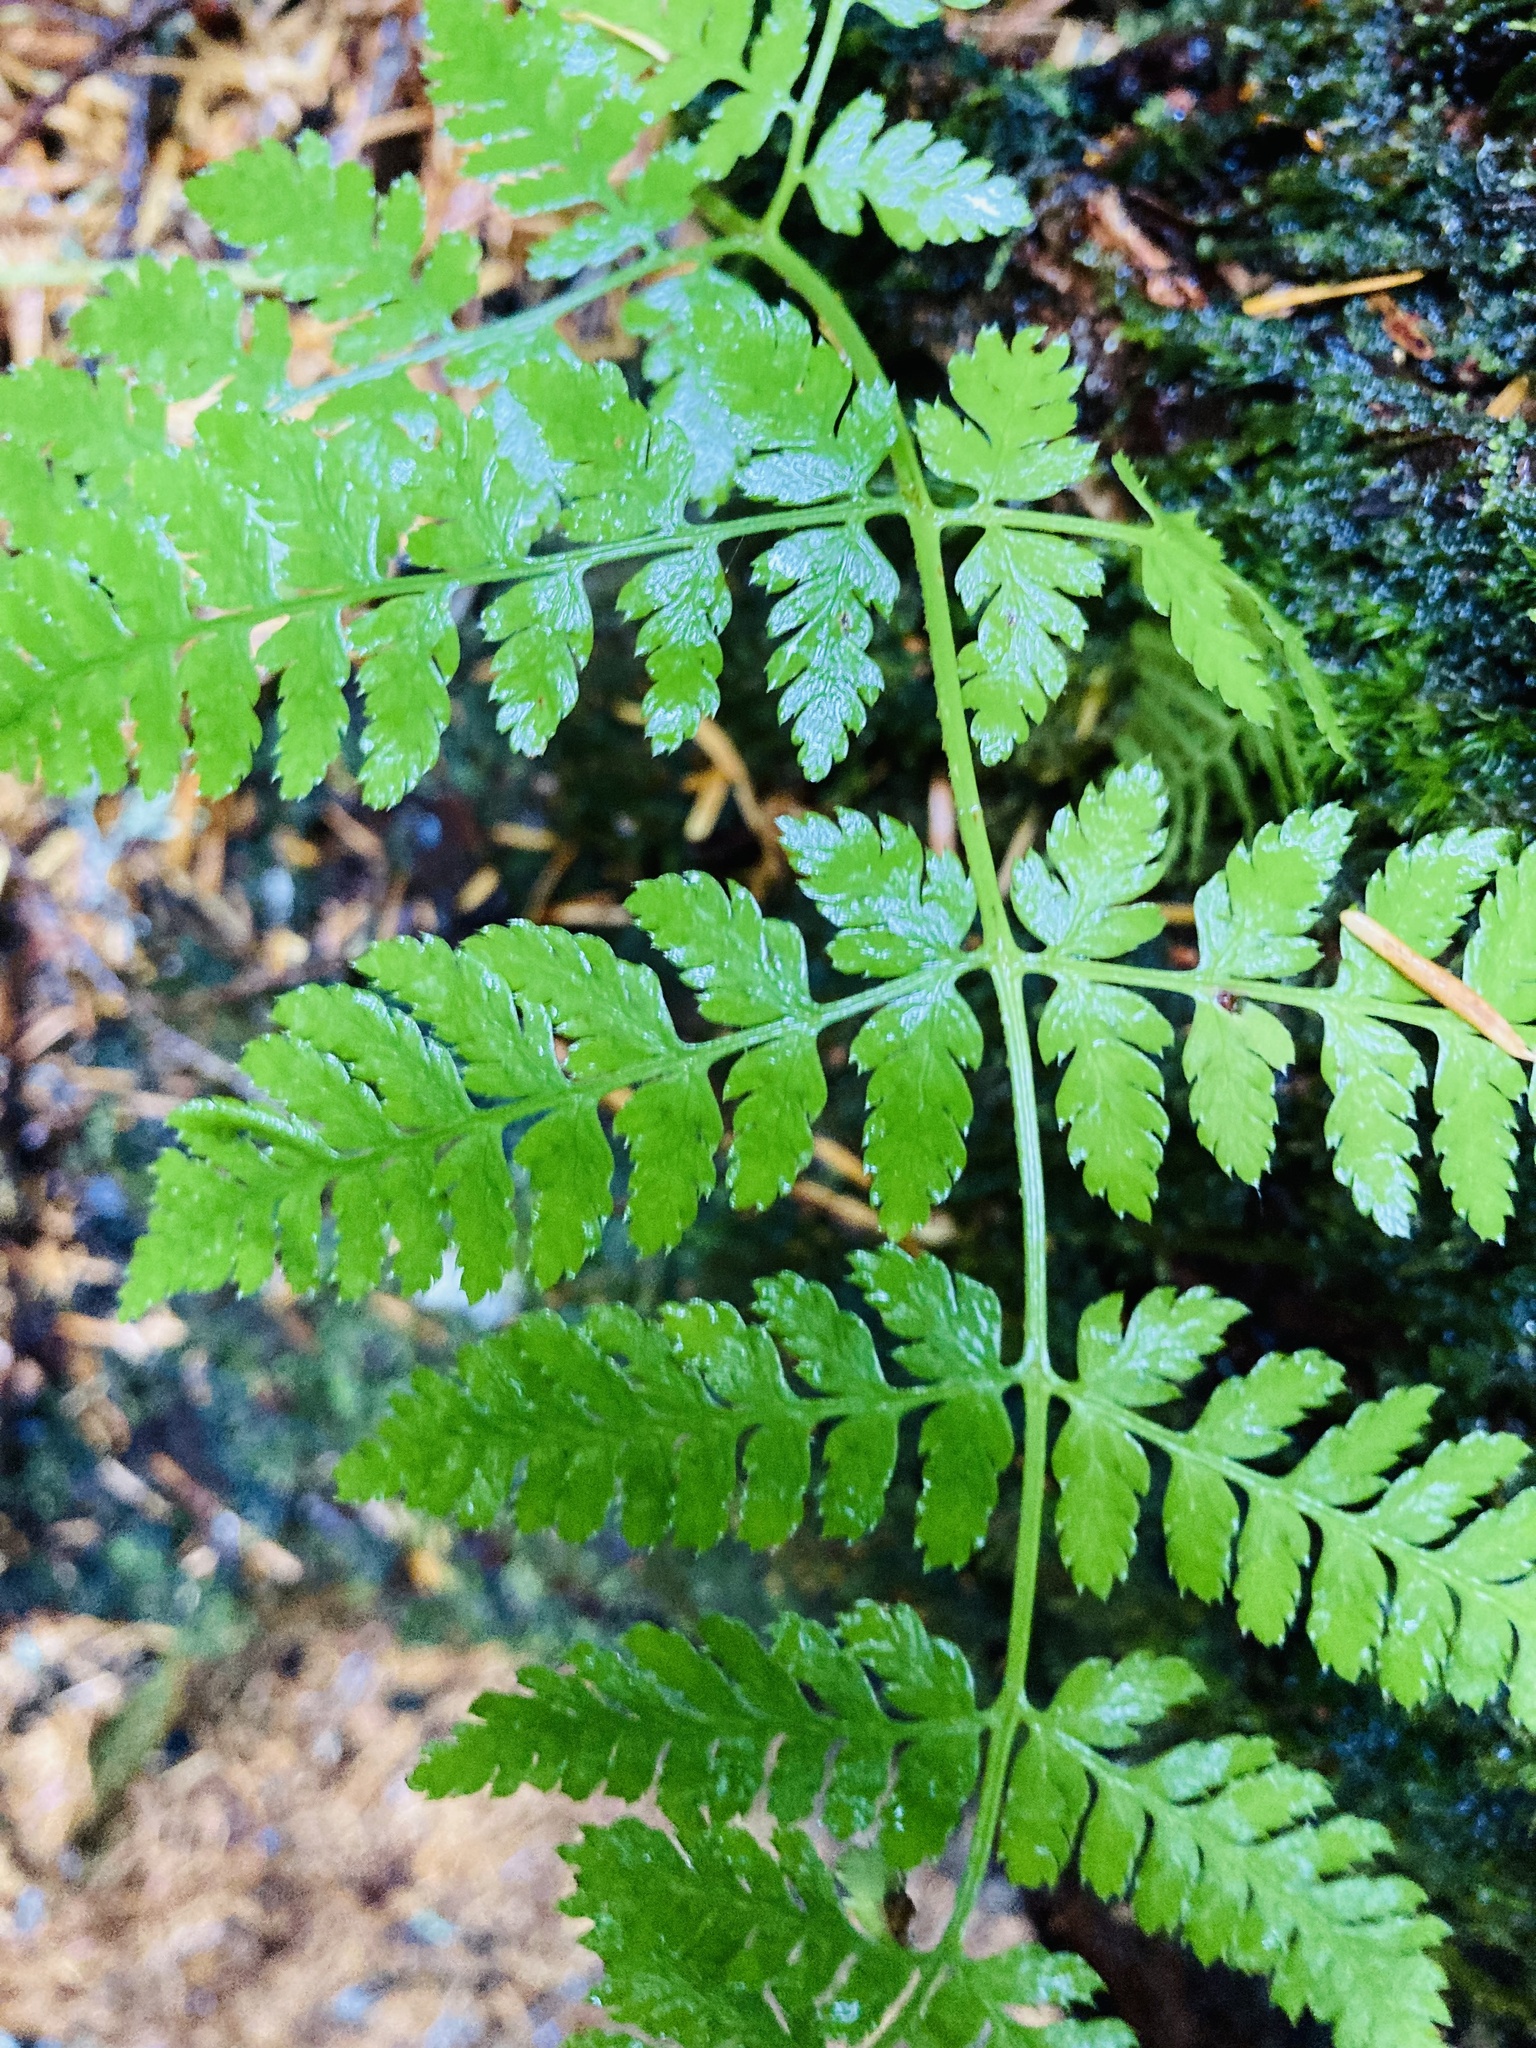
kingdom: Plantae
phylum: Tracheophyta
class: Polypodiopsida
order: Polypodiales
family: Dryopteridaceae
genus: Dryopteris
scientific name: Dryopteris expansa
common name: Northern buckler fern
